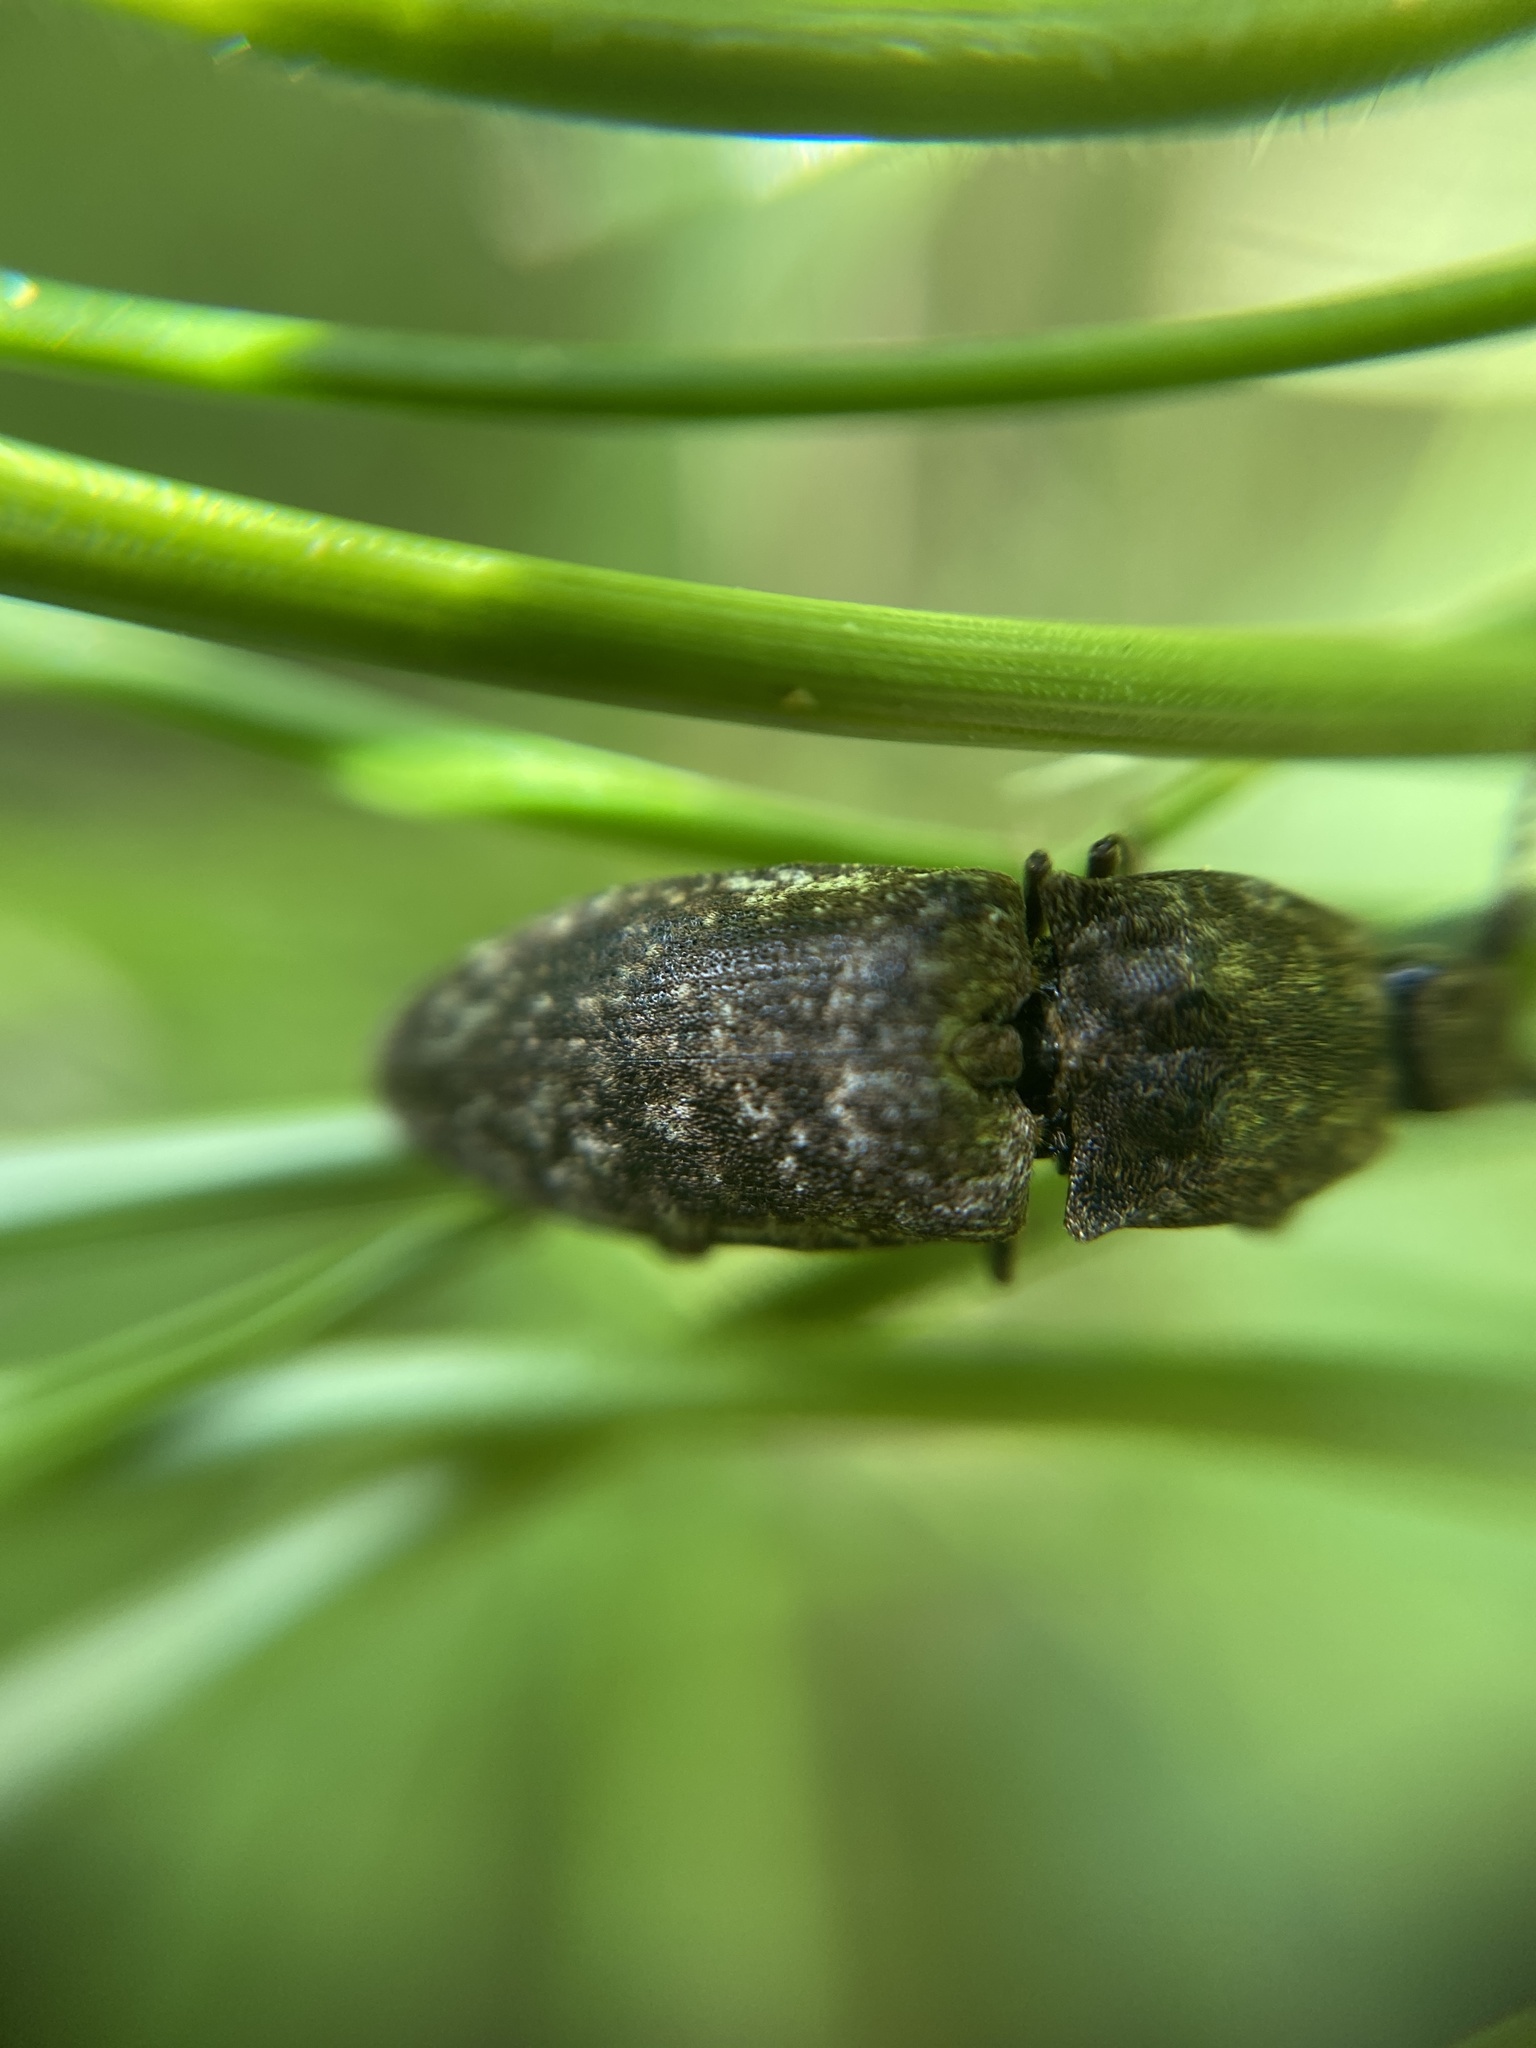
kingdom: Animalia
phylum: Arthropoda
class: Insecta
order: Coleoptera
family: Elateridae
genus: Agrypnus
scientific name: Agrypnus murinus
